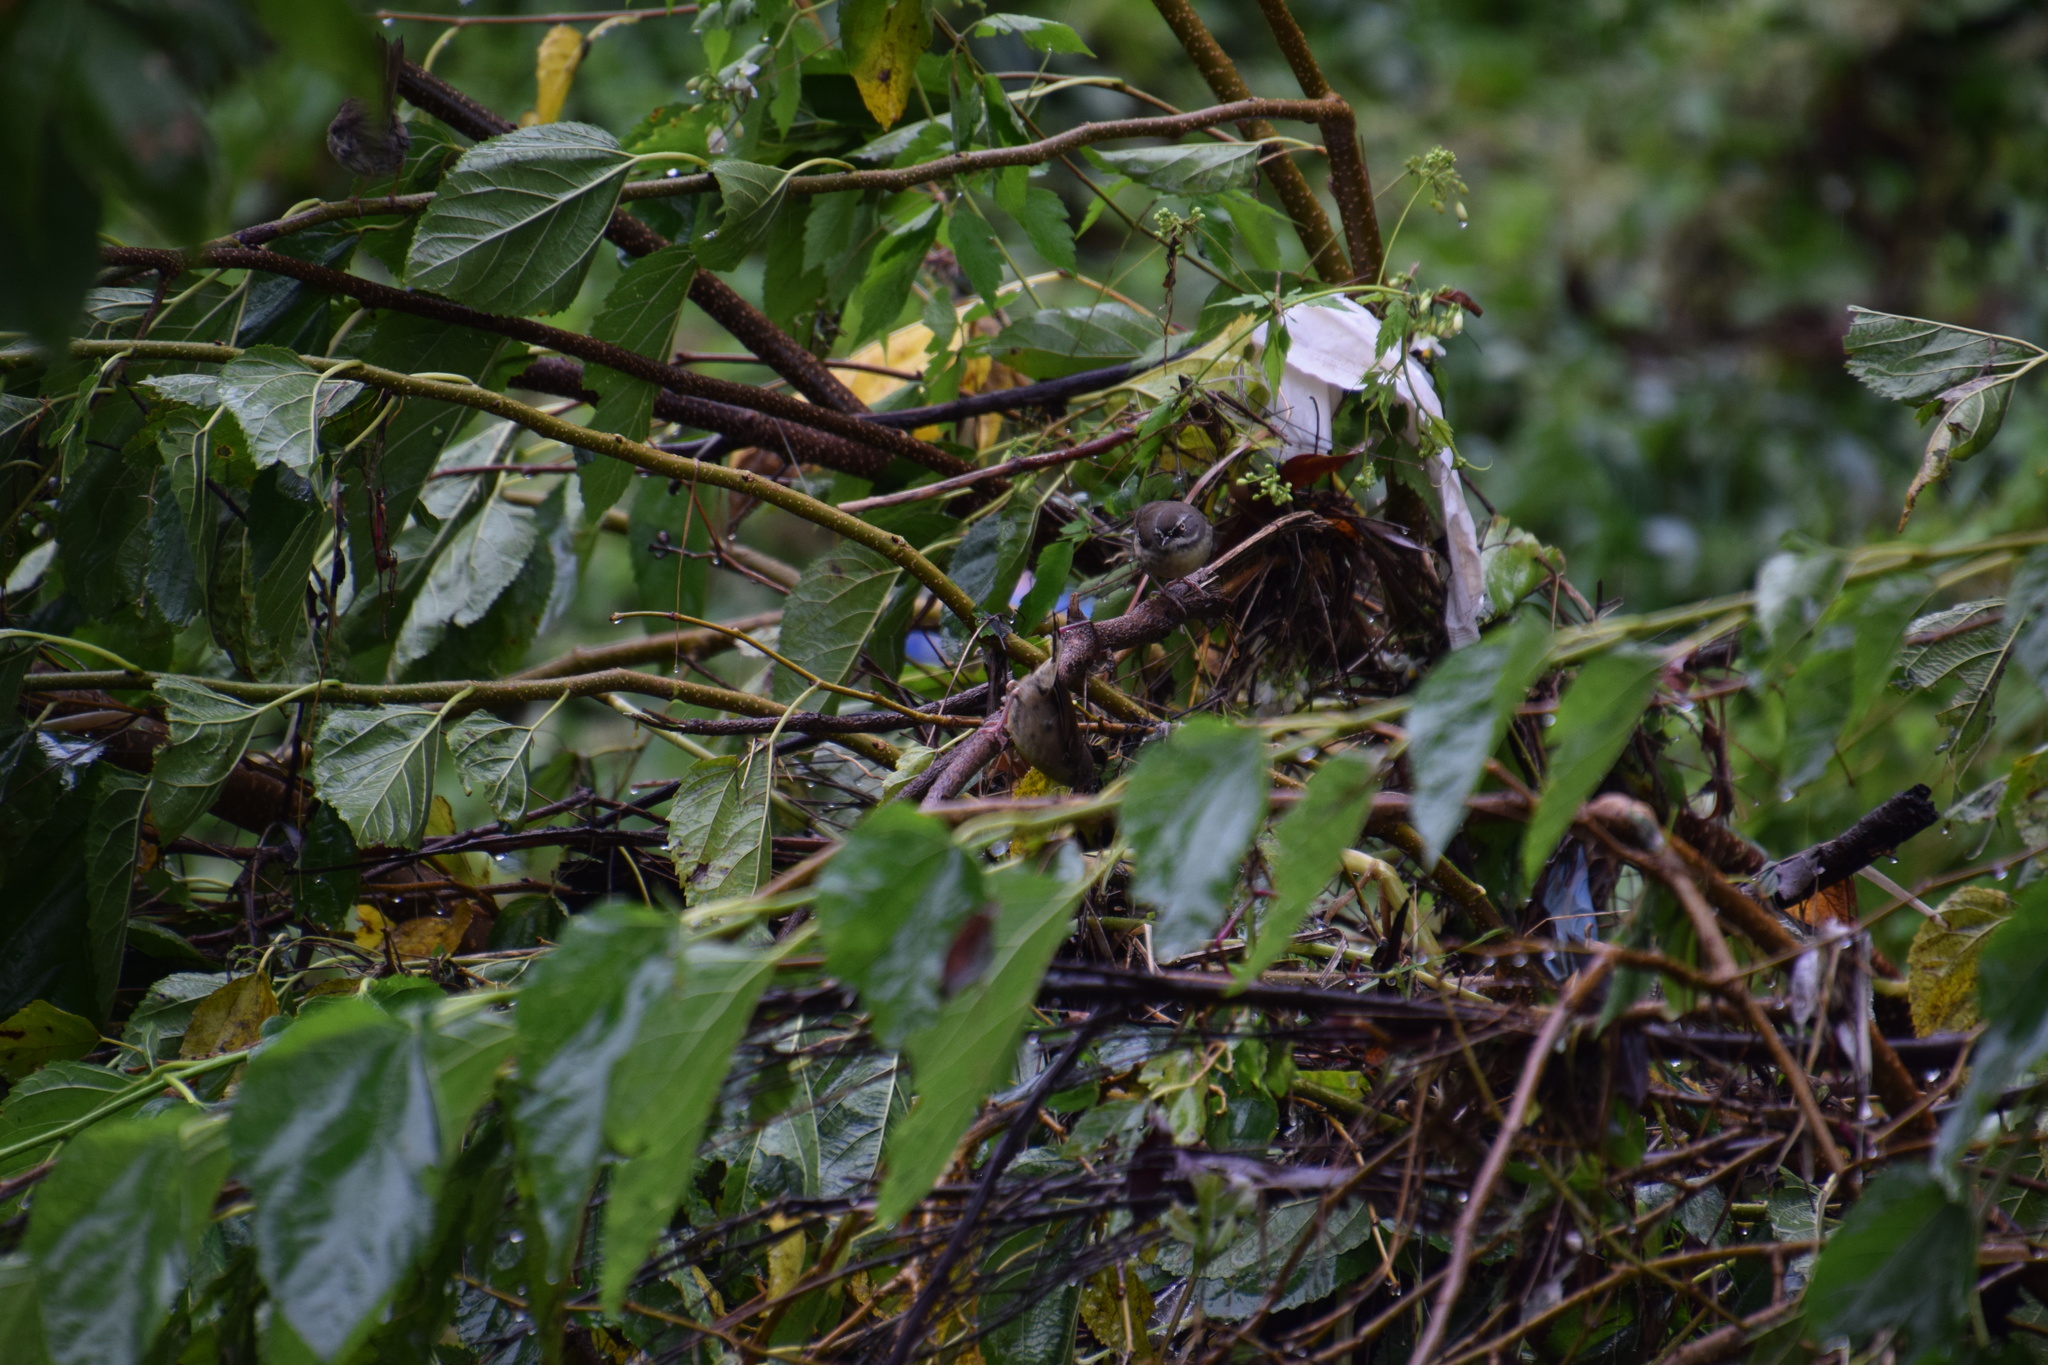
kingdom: Animalia
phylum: Chordata
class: Aves
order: Passeriformes
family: Acanthizidae
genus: Sericornis
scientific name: Sericornis frontalis
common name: White-browed scrubwren
